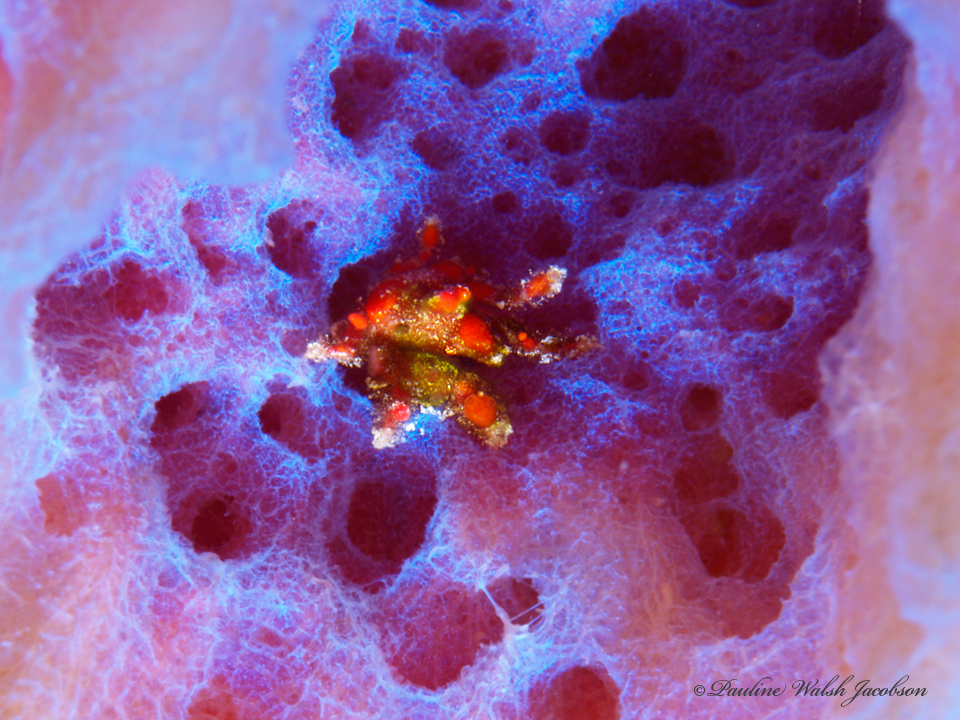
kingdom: Animalia
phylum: Arthropoda
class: Malacostraca
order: Decapoda
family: Epialtidae
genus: Pelia
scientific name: Pelia mutica
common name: Cryptic teardrop crab
